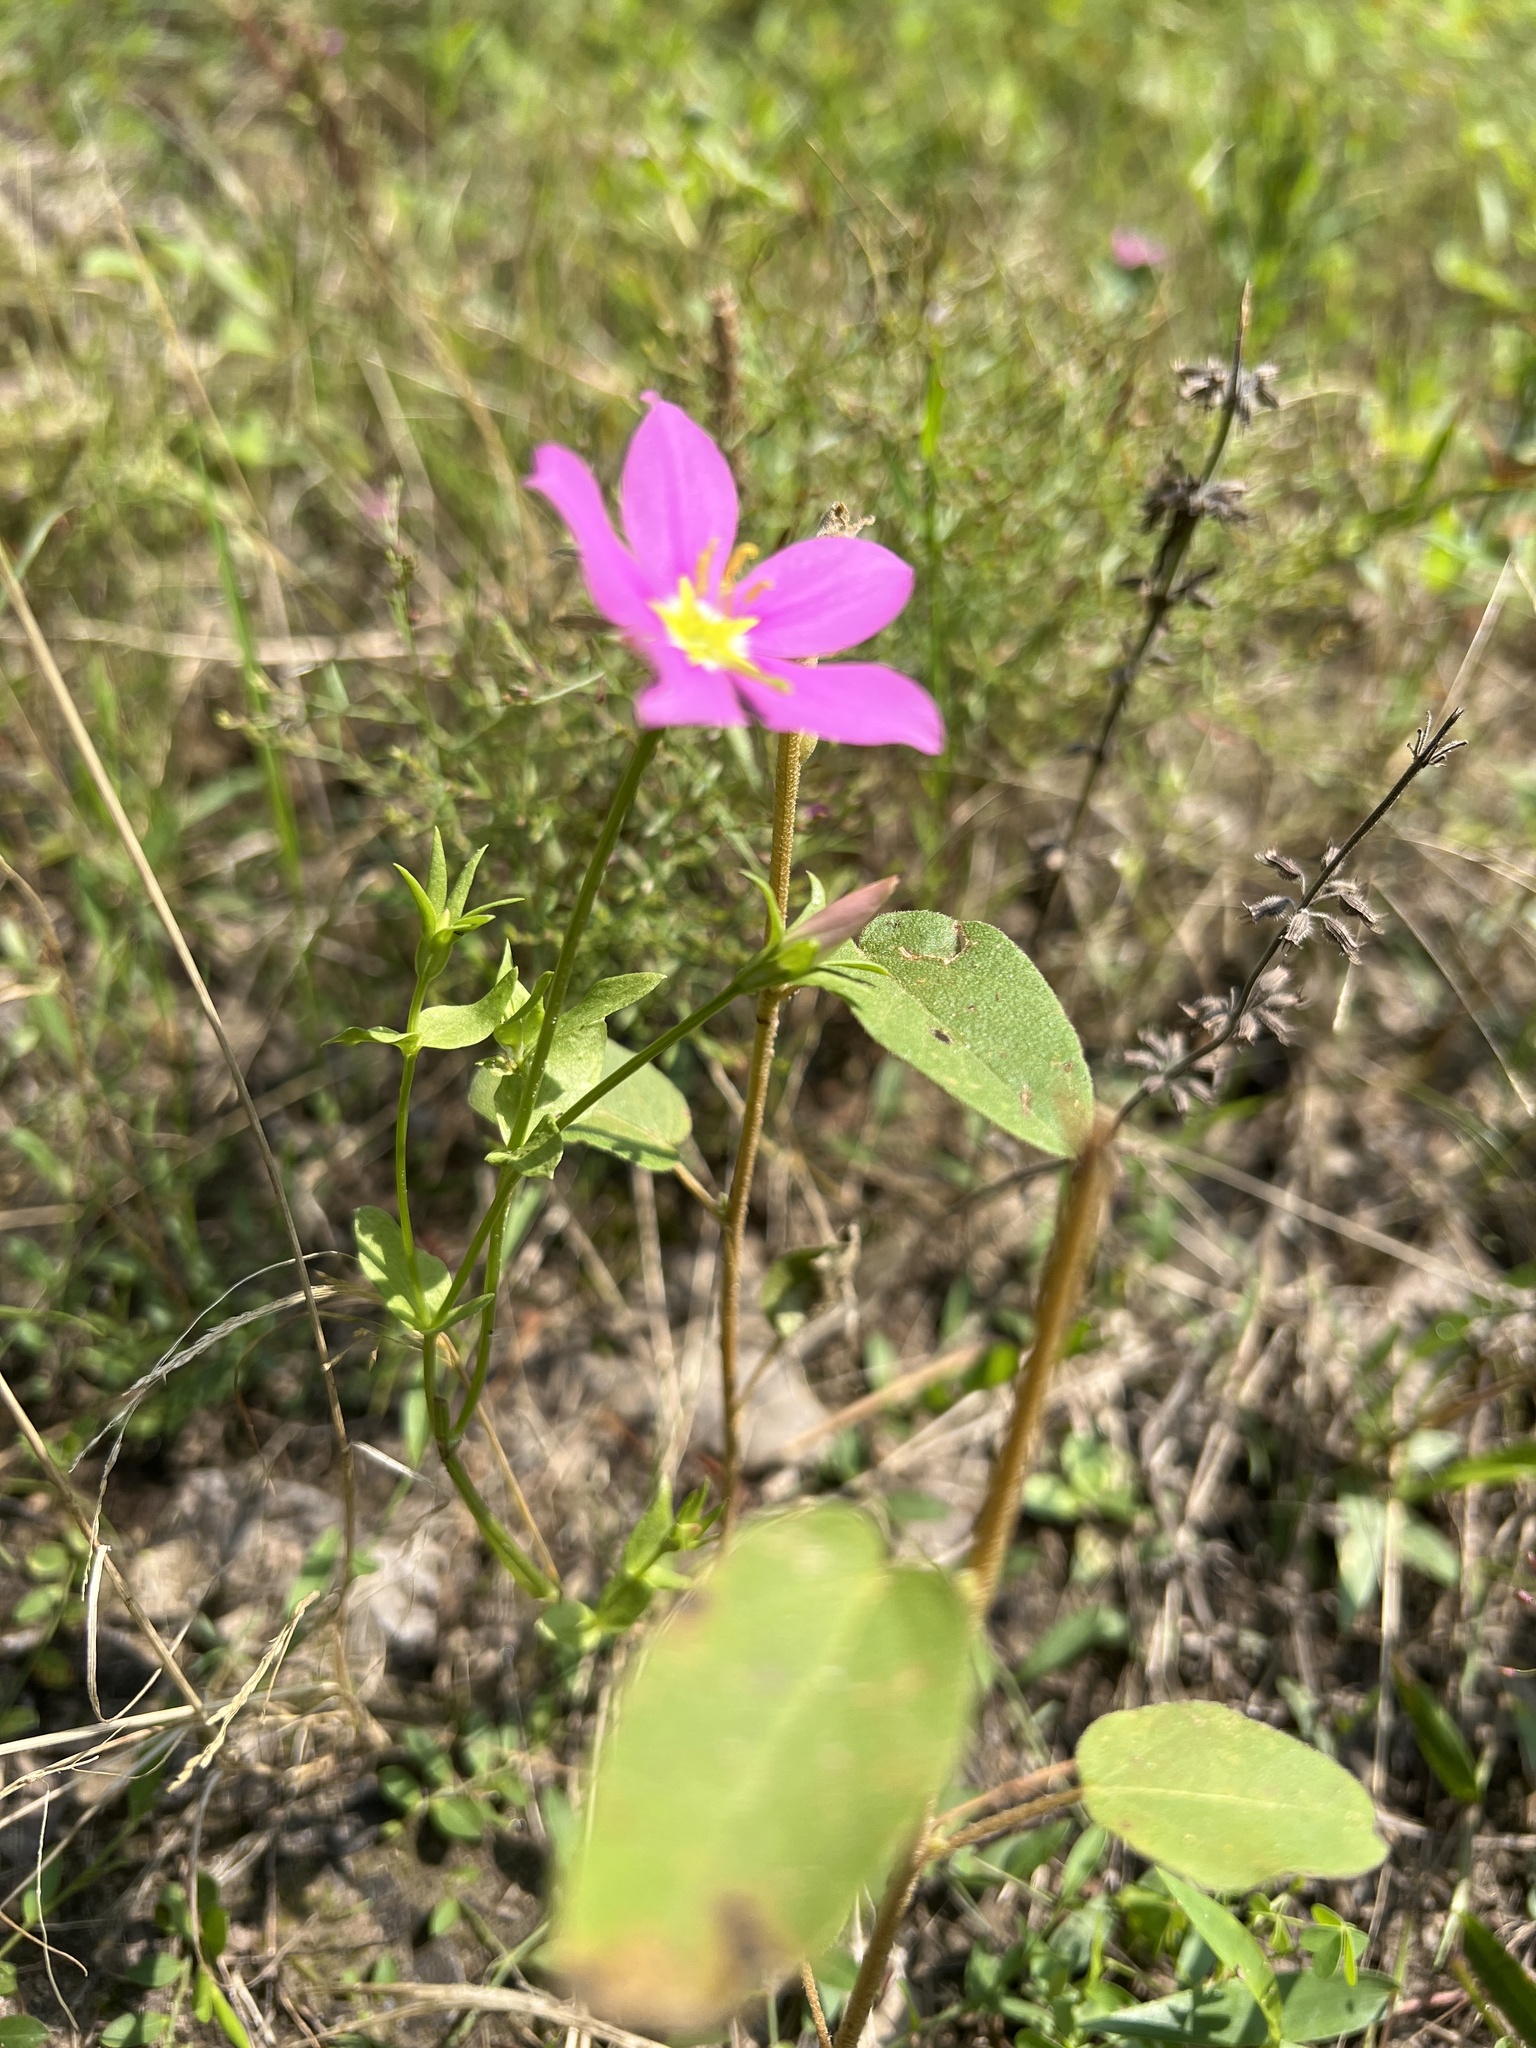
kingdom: Plantae
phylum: Tracheophyta
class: Magnoliopsida
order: Gentianales
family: Gentianaceae
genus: Sabatia
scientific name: Sabatia campestris
